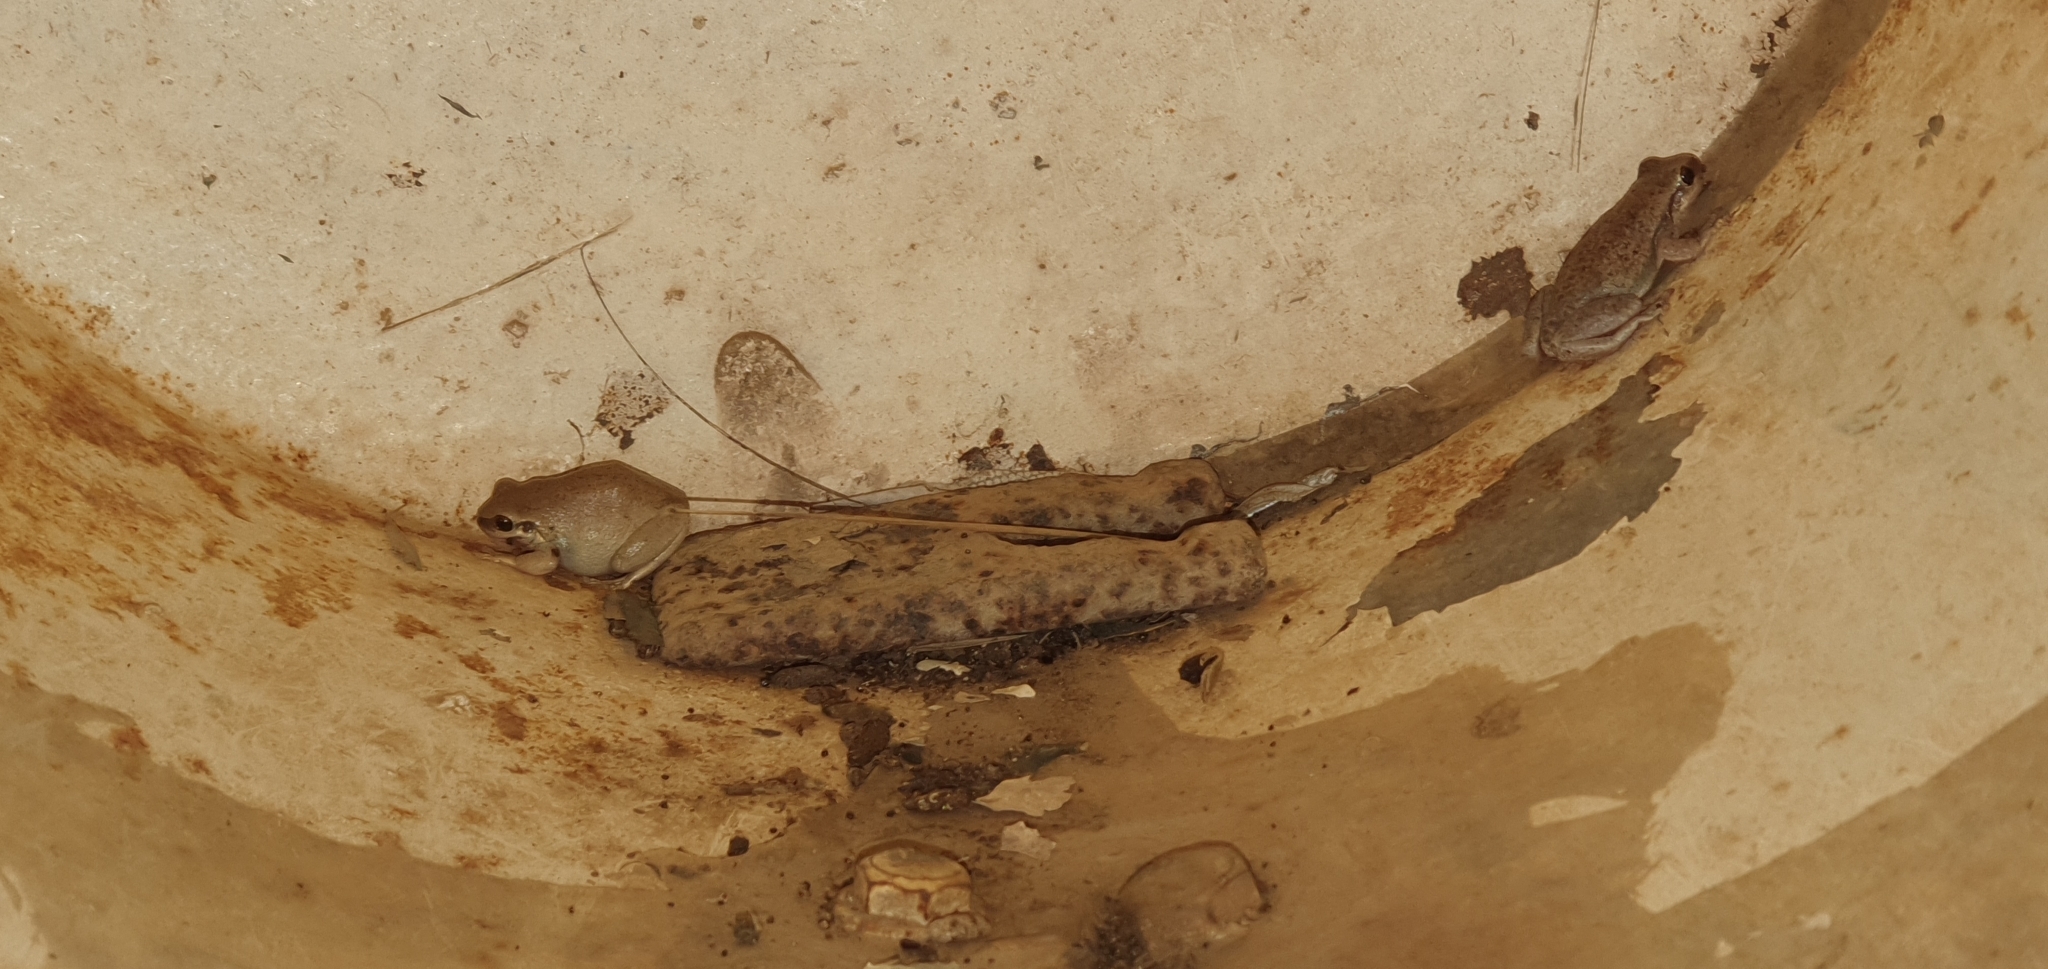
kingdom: Animalia
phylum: Chordata
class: Amphibia
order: Anura
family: Pelodryadidae
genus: Litoria
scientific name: Litoria rubella
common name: Desert tree frog
